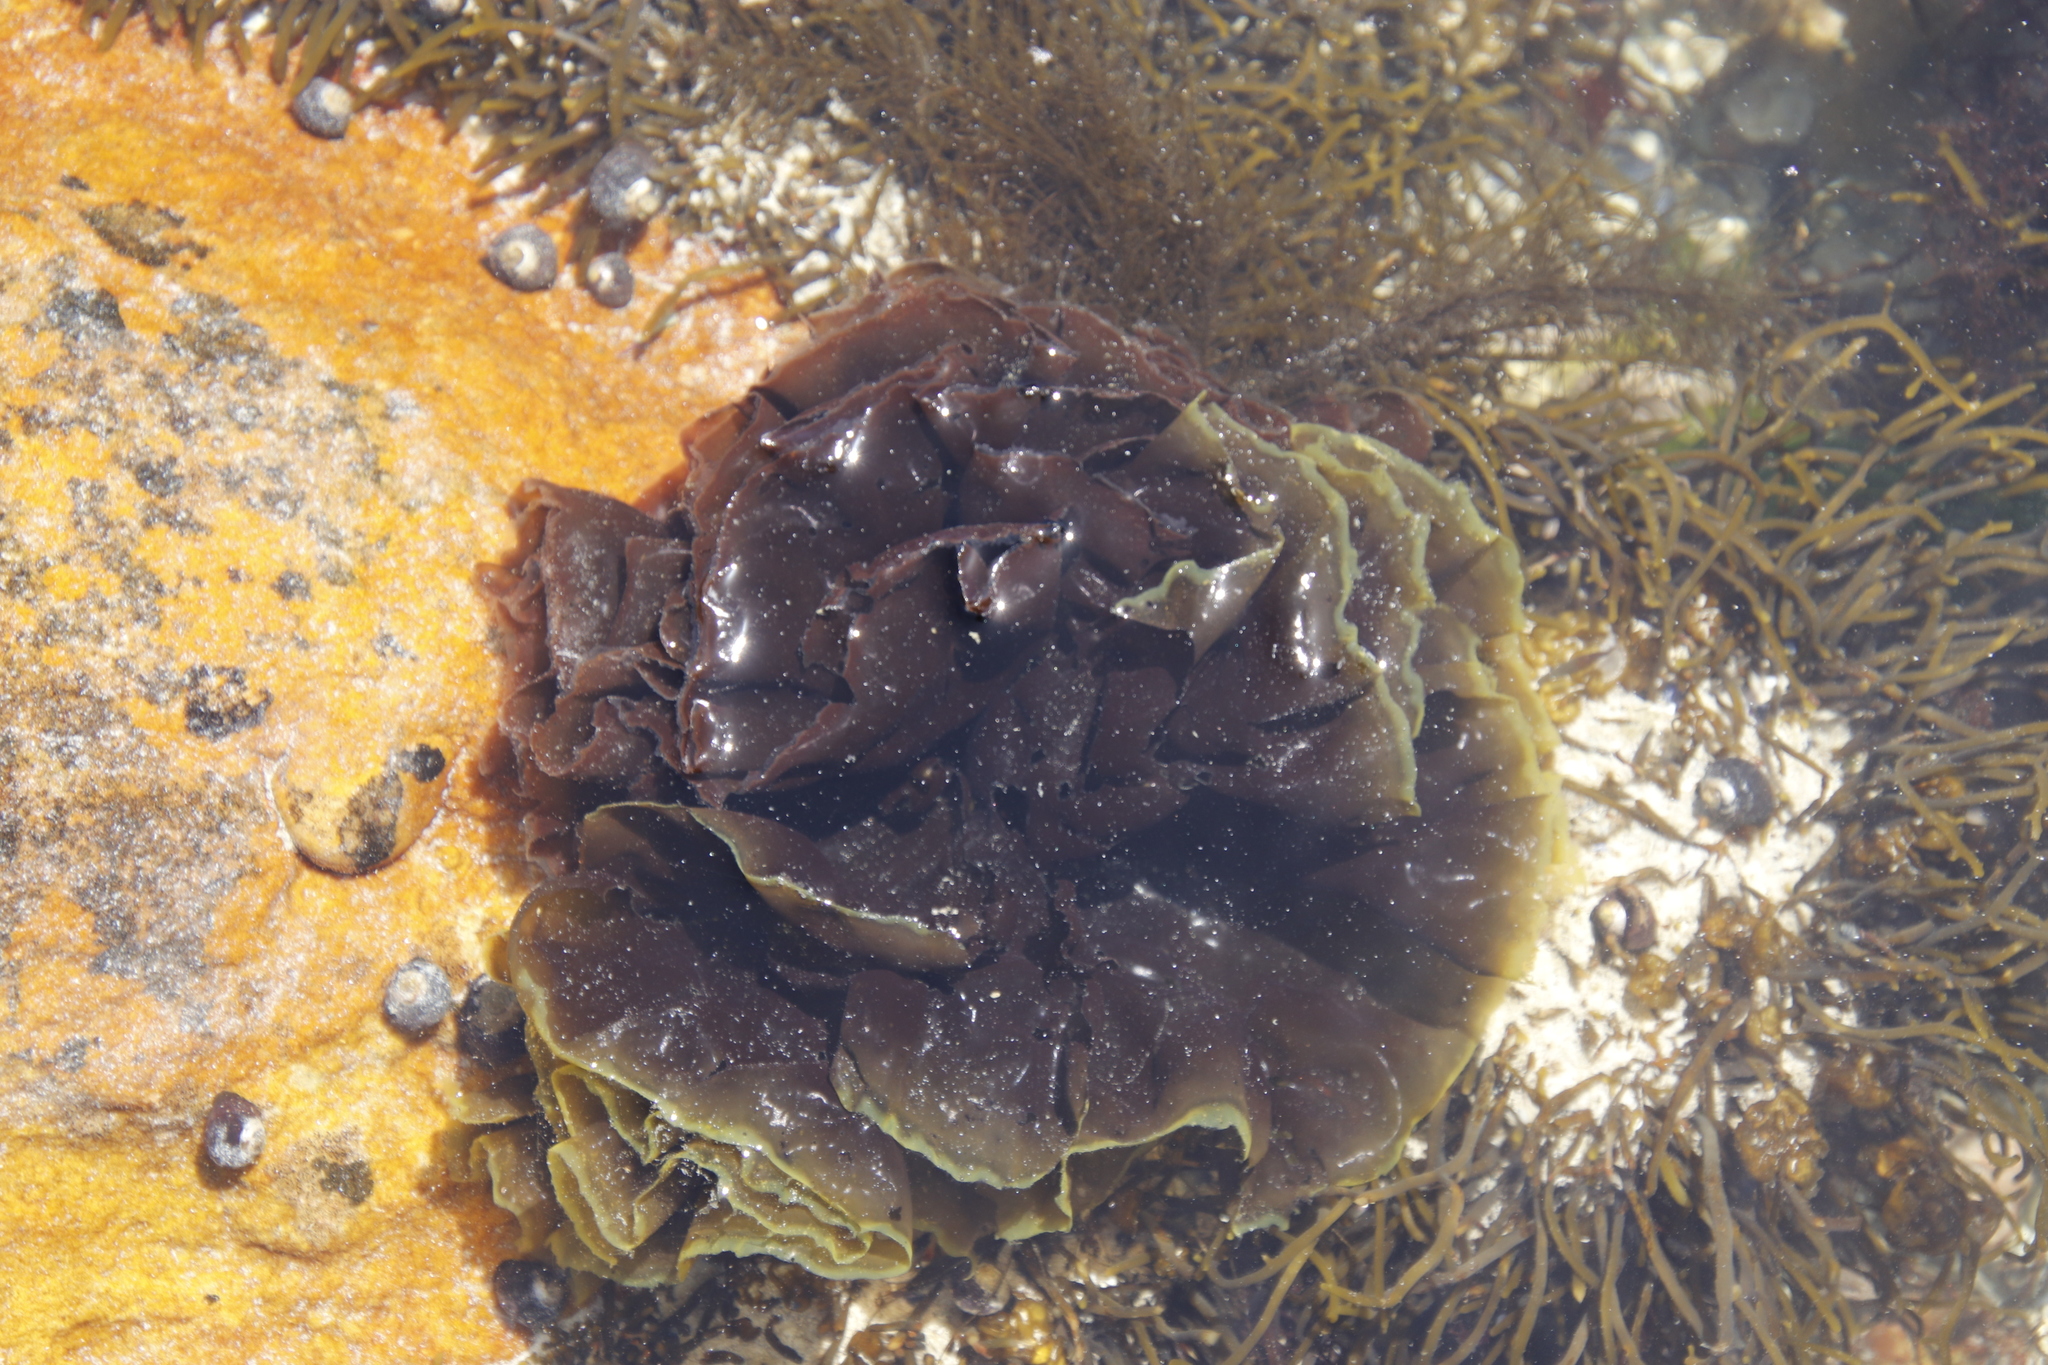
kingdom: Plantae
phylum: Rhodophyta
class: Bangiophyceae
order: Bangiales
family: Bangiaceae
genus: Pyropia
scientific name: Pyropia
